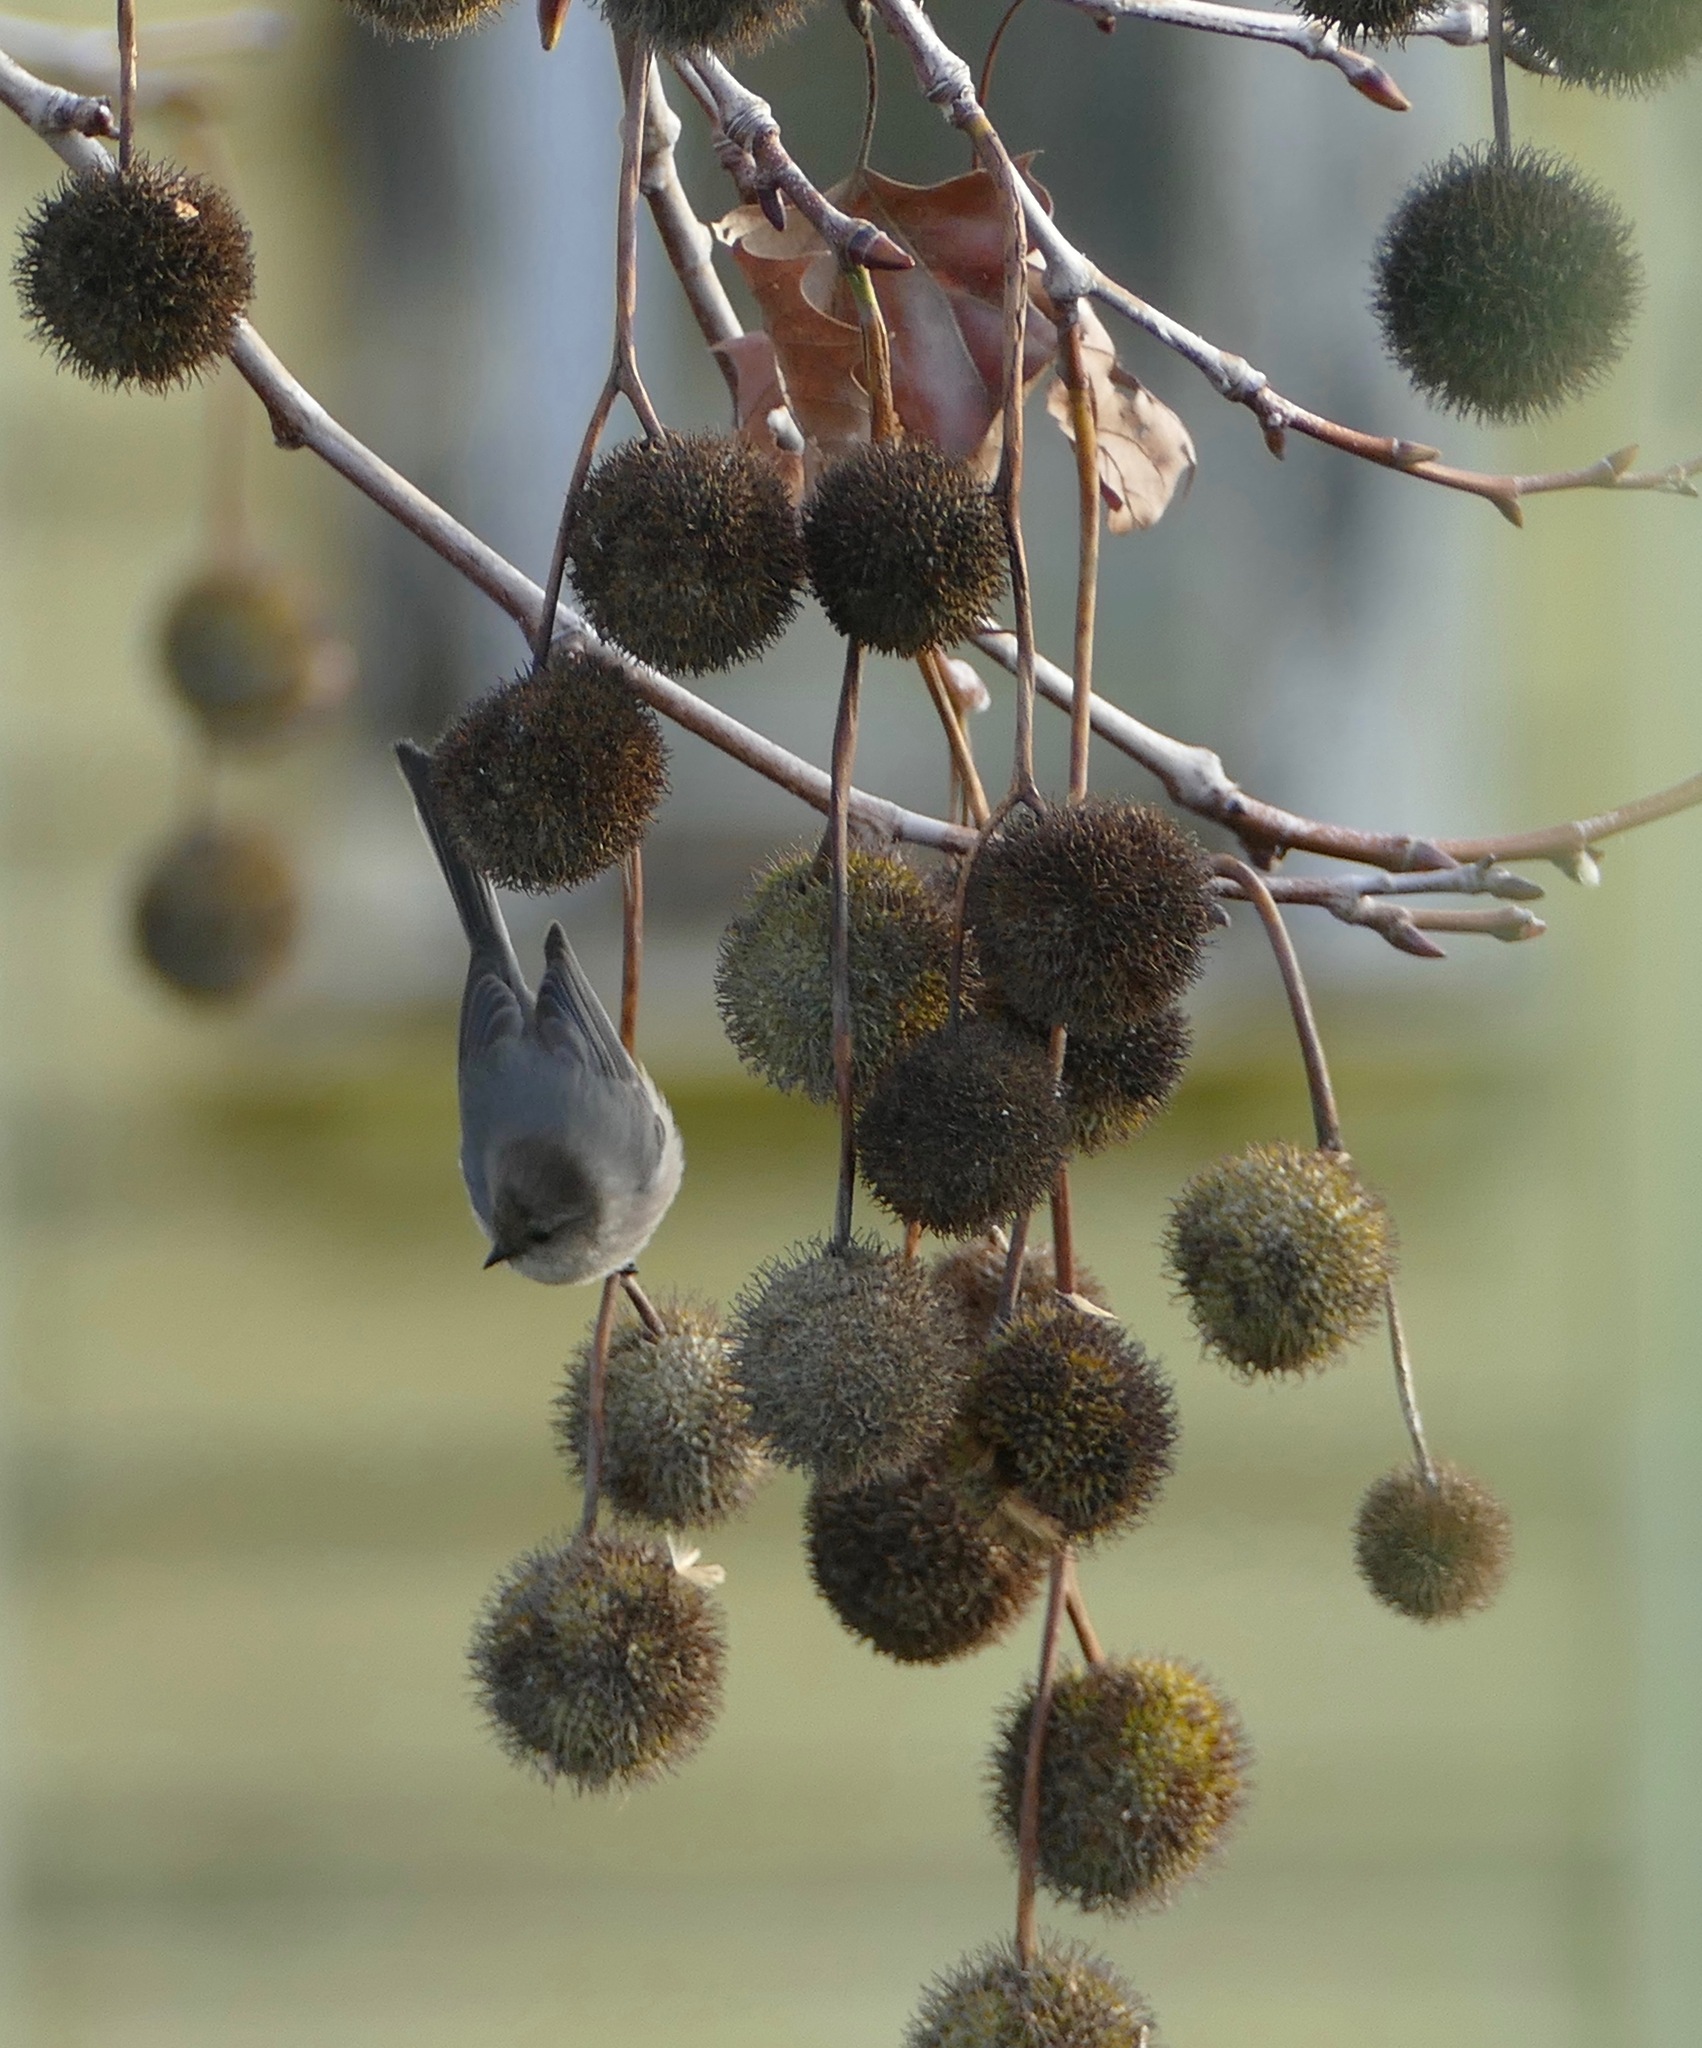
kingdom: Animalia
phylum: Chordata
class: Aves
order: Passeriformes
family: Aegithalidae
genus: Psaltriparus
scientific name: Psaltriparus minimus
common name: American bushtit
